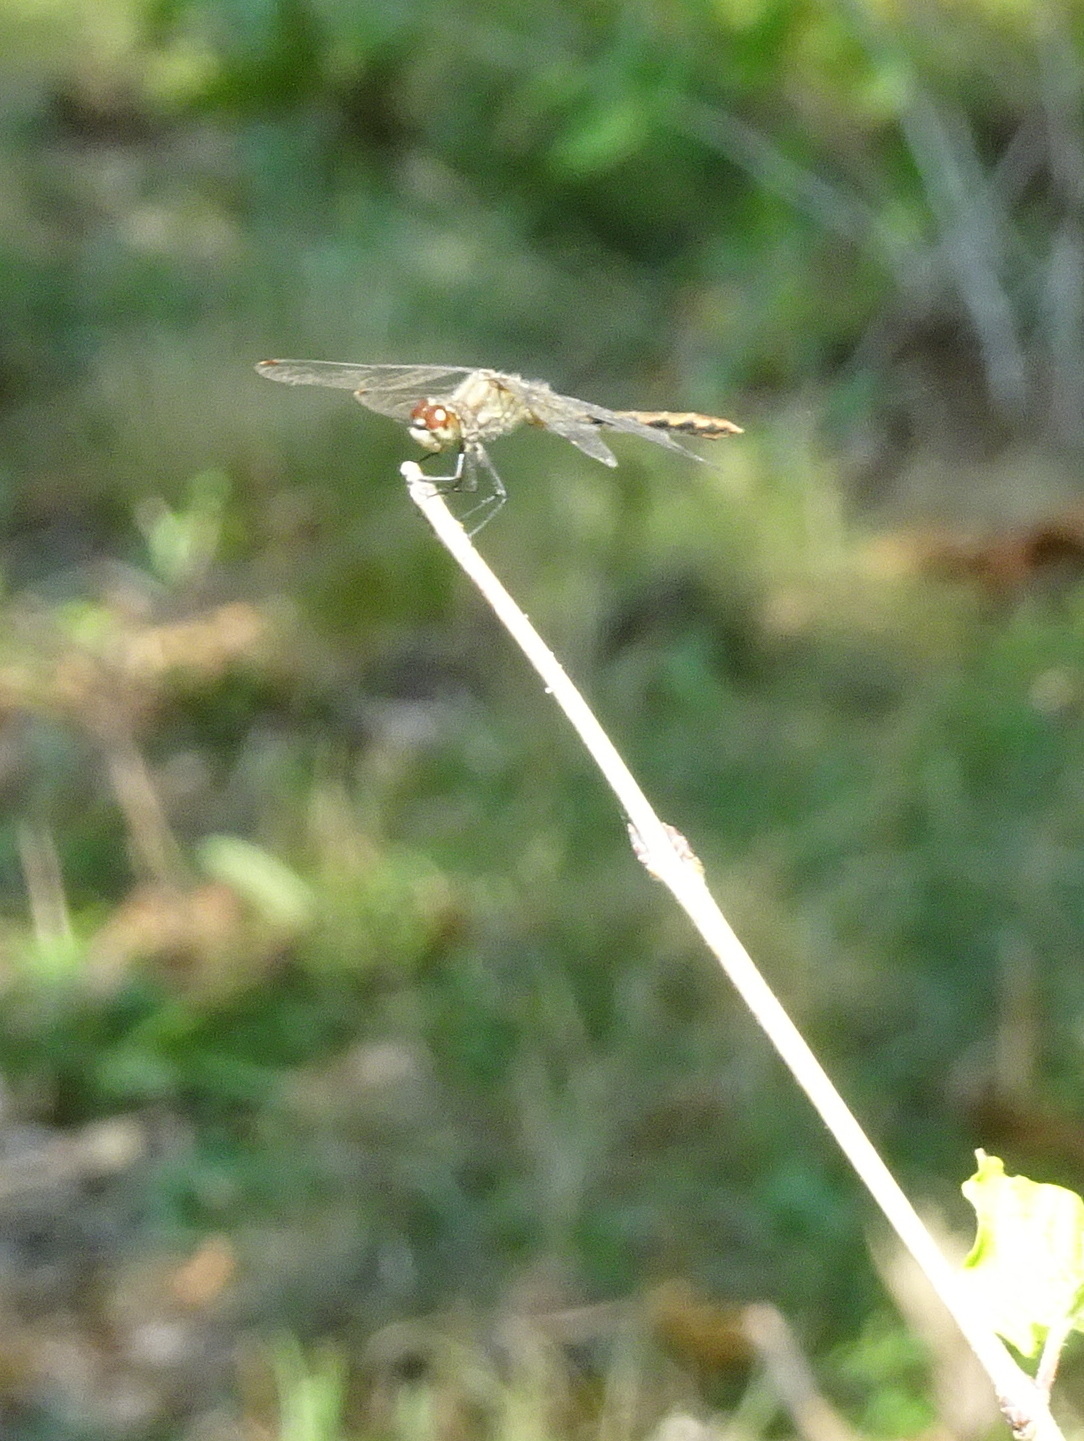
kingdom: Animalia
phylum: Arthropoda
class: Insecta
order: Odonata
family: Libellulidae
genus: Sympetrum
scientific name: Sympetrum obtrusum
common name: White-faced meadowhawk
